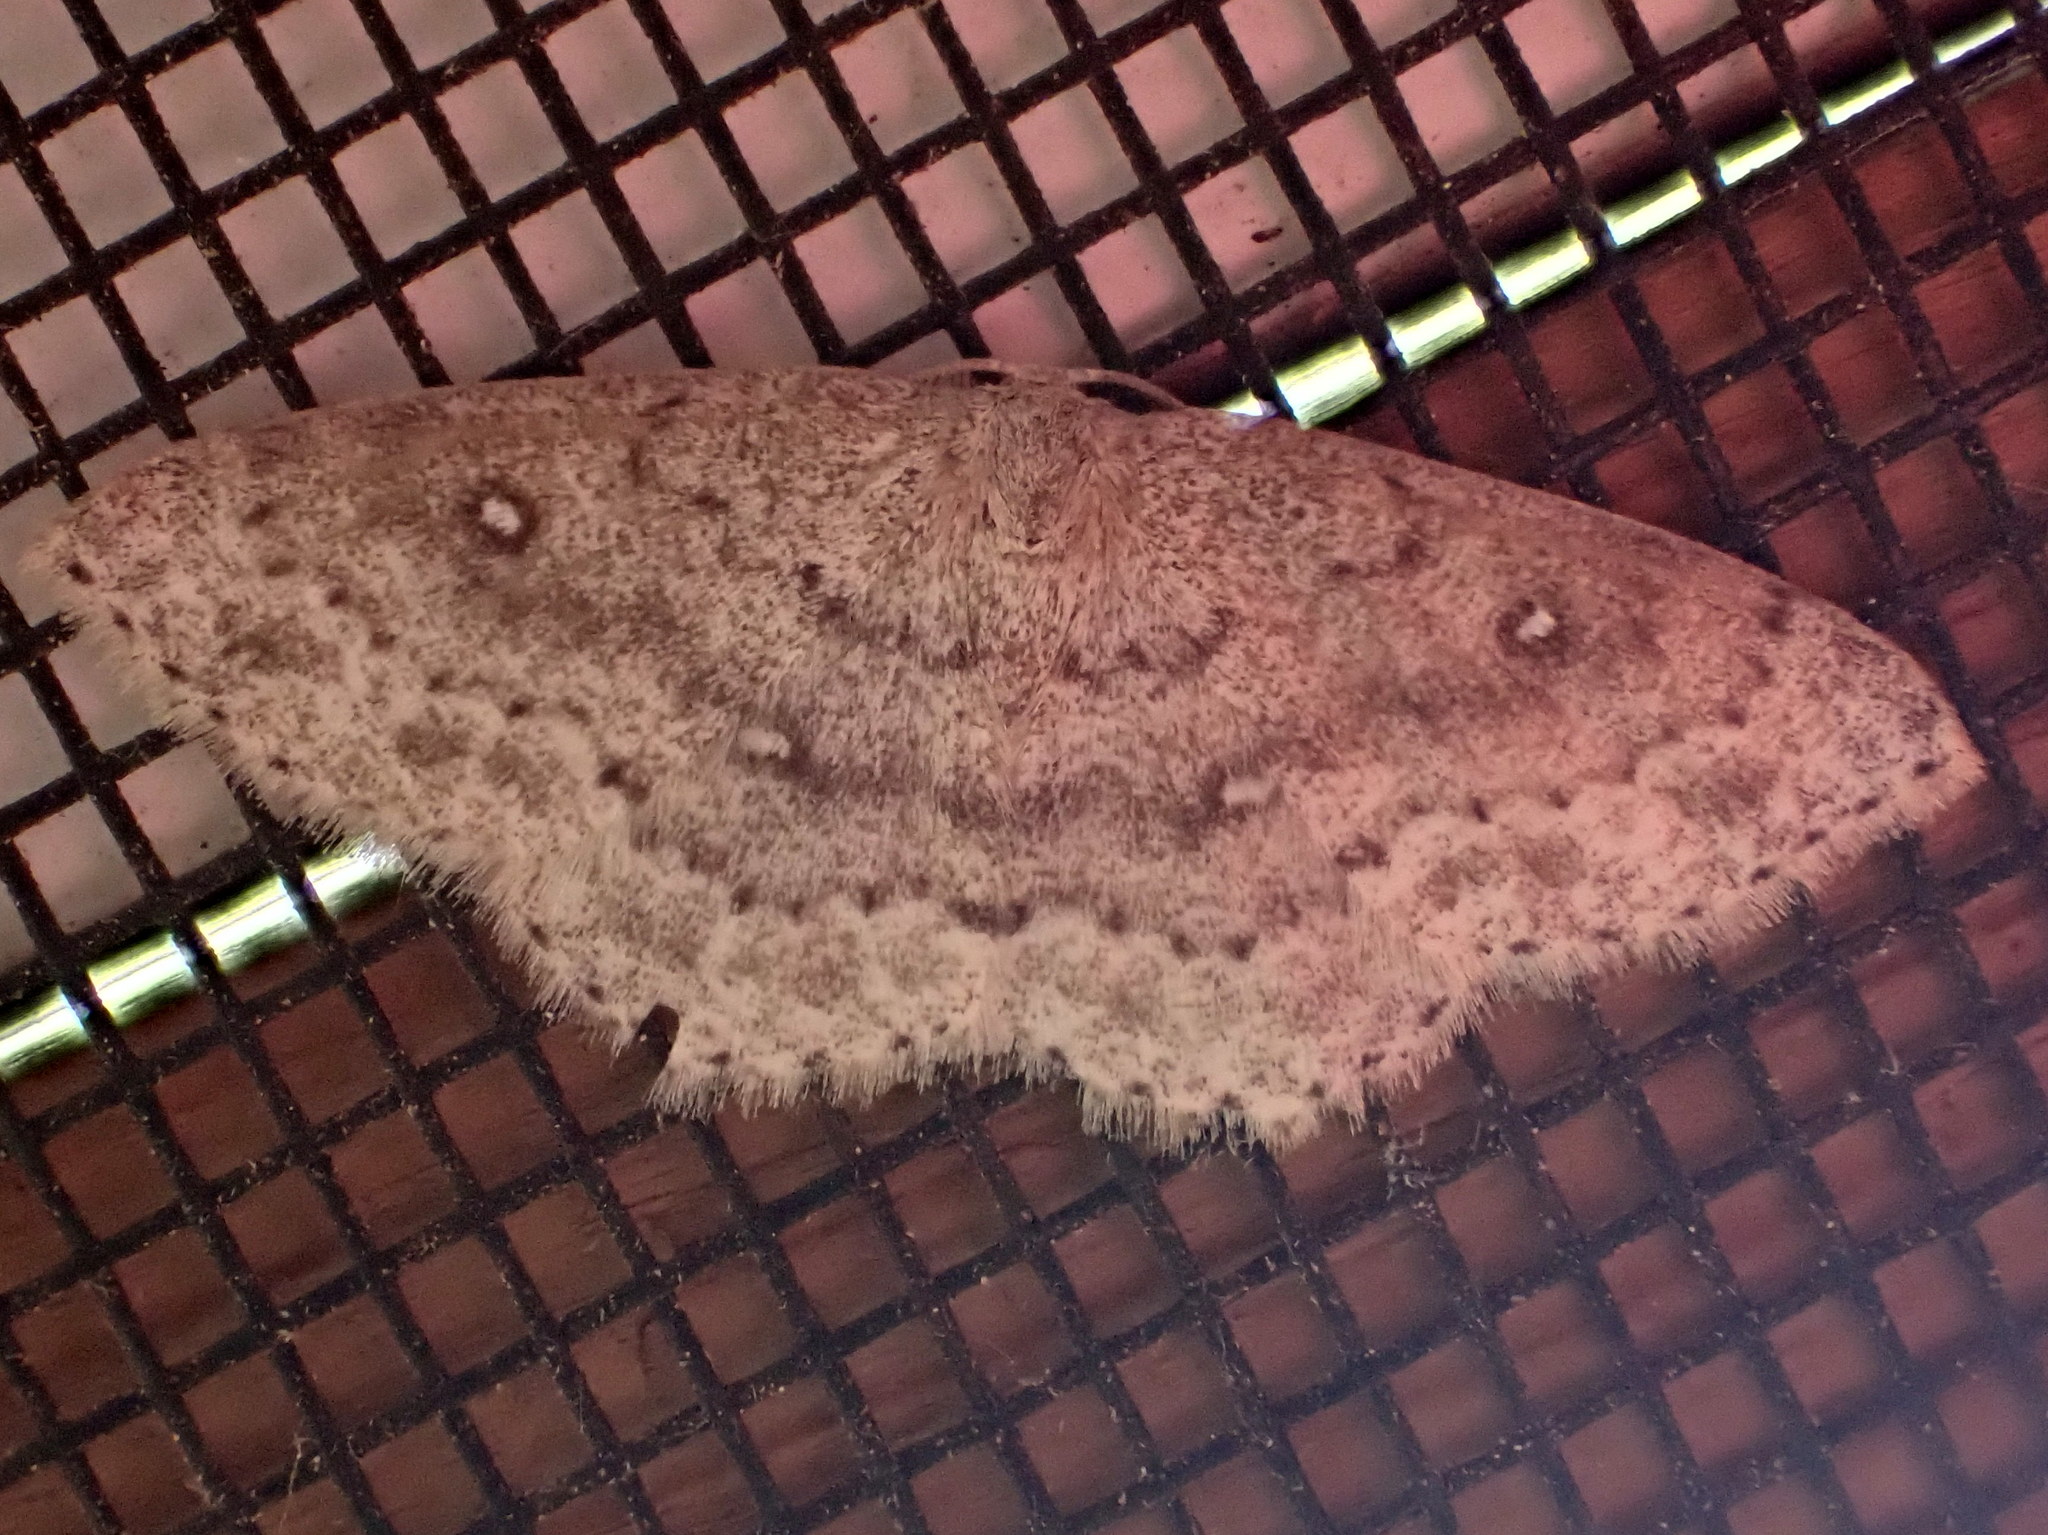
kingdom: Animalia
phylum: Arthropoda
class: Insecta
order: Lepidoptera
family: Geometridae
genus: Cyclophora
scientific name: Cyclophora pendulinaria
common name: Sweet fern geometer
